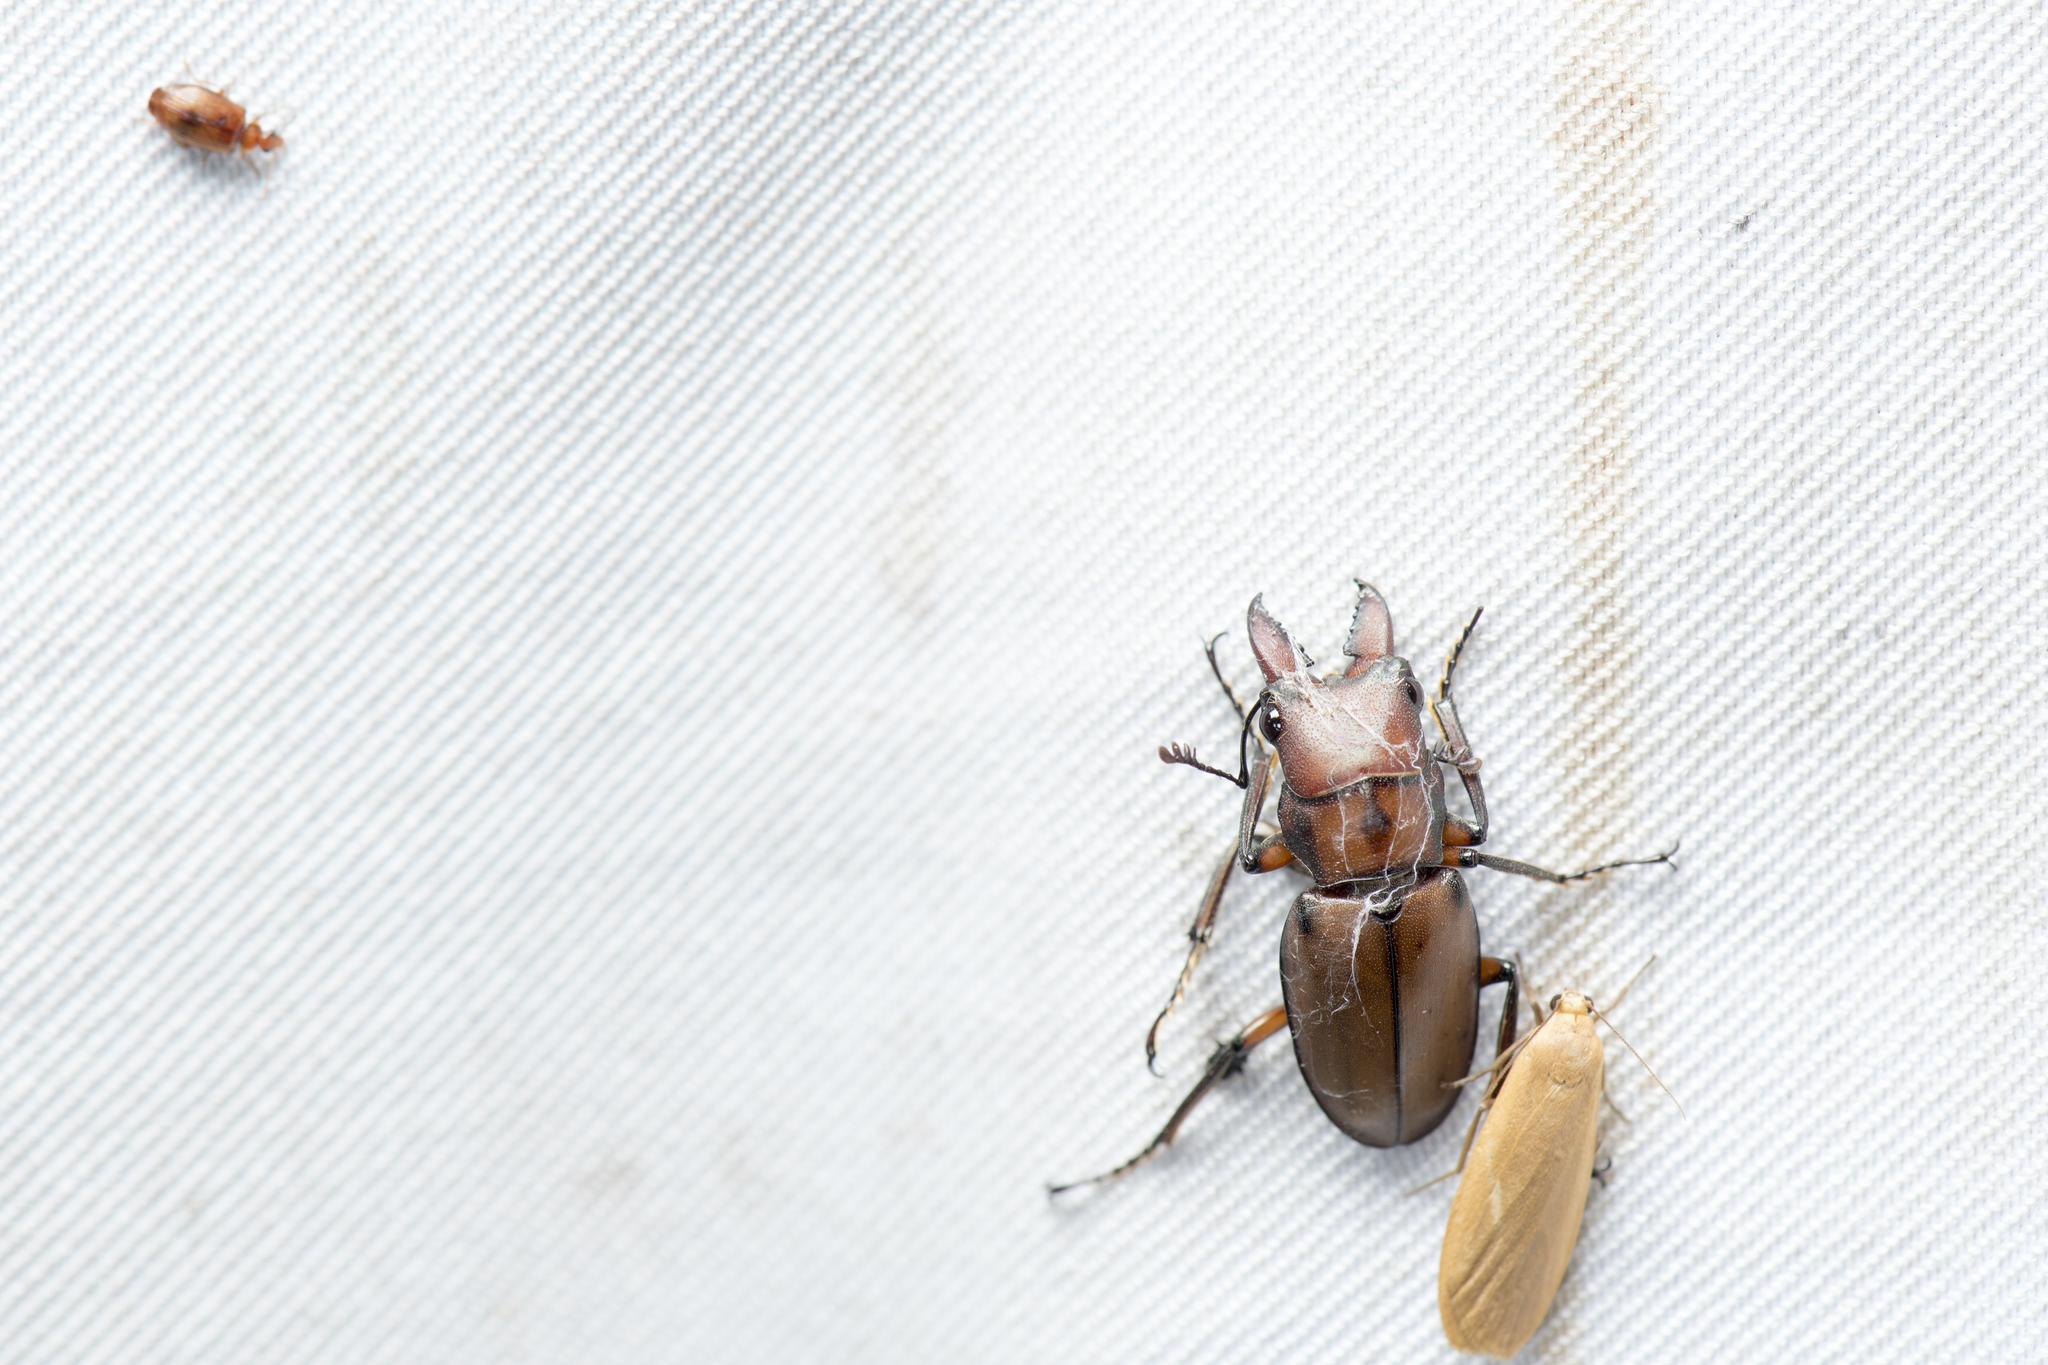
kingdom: Animalia
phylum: Arthropoda
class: Insecta
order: Coleoptera
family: Lucanidae
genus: Cyclommatinus
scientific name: Cyclommatinus scutellaris
